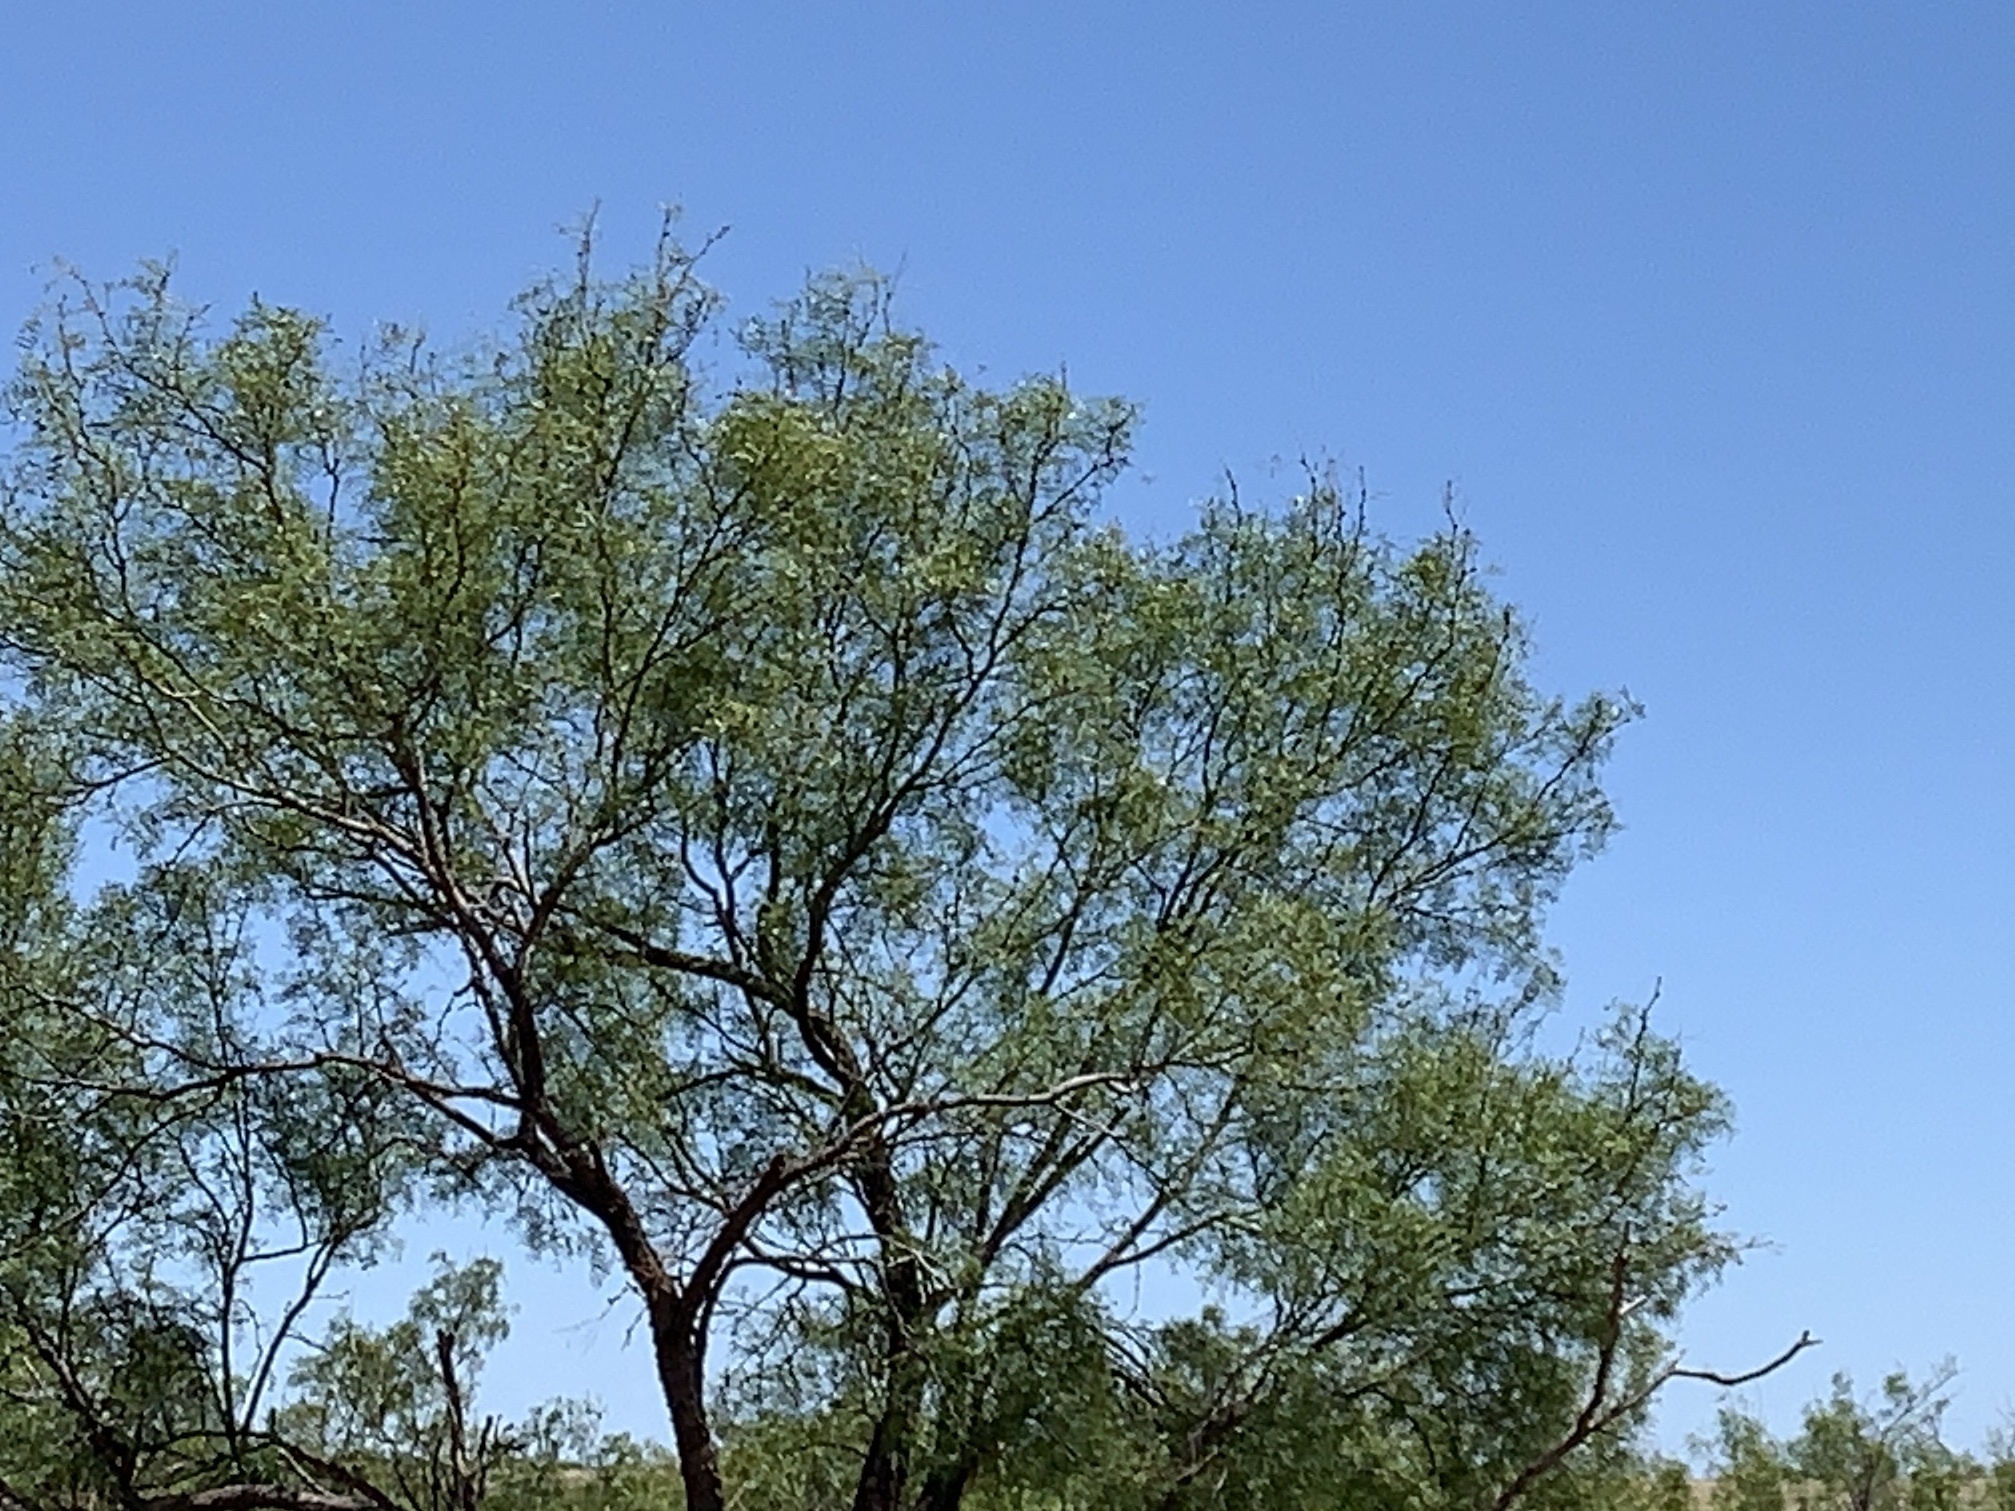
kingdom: Plantae
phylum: Tracheophyta
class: Magnoliopsida
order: Fabales
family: Fabaceae
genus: Prosopis
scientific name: Prosopis glandulosa
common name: Honey mesquite
